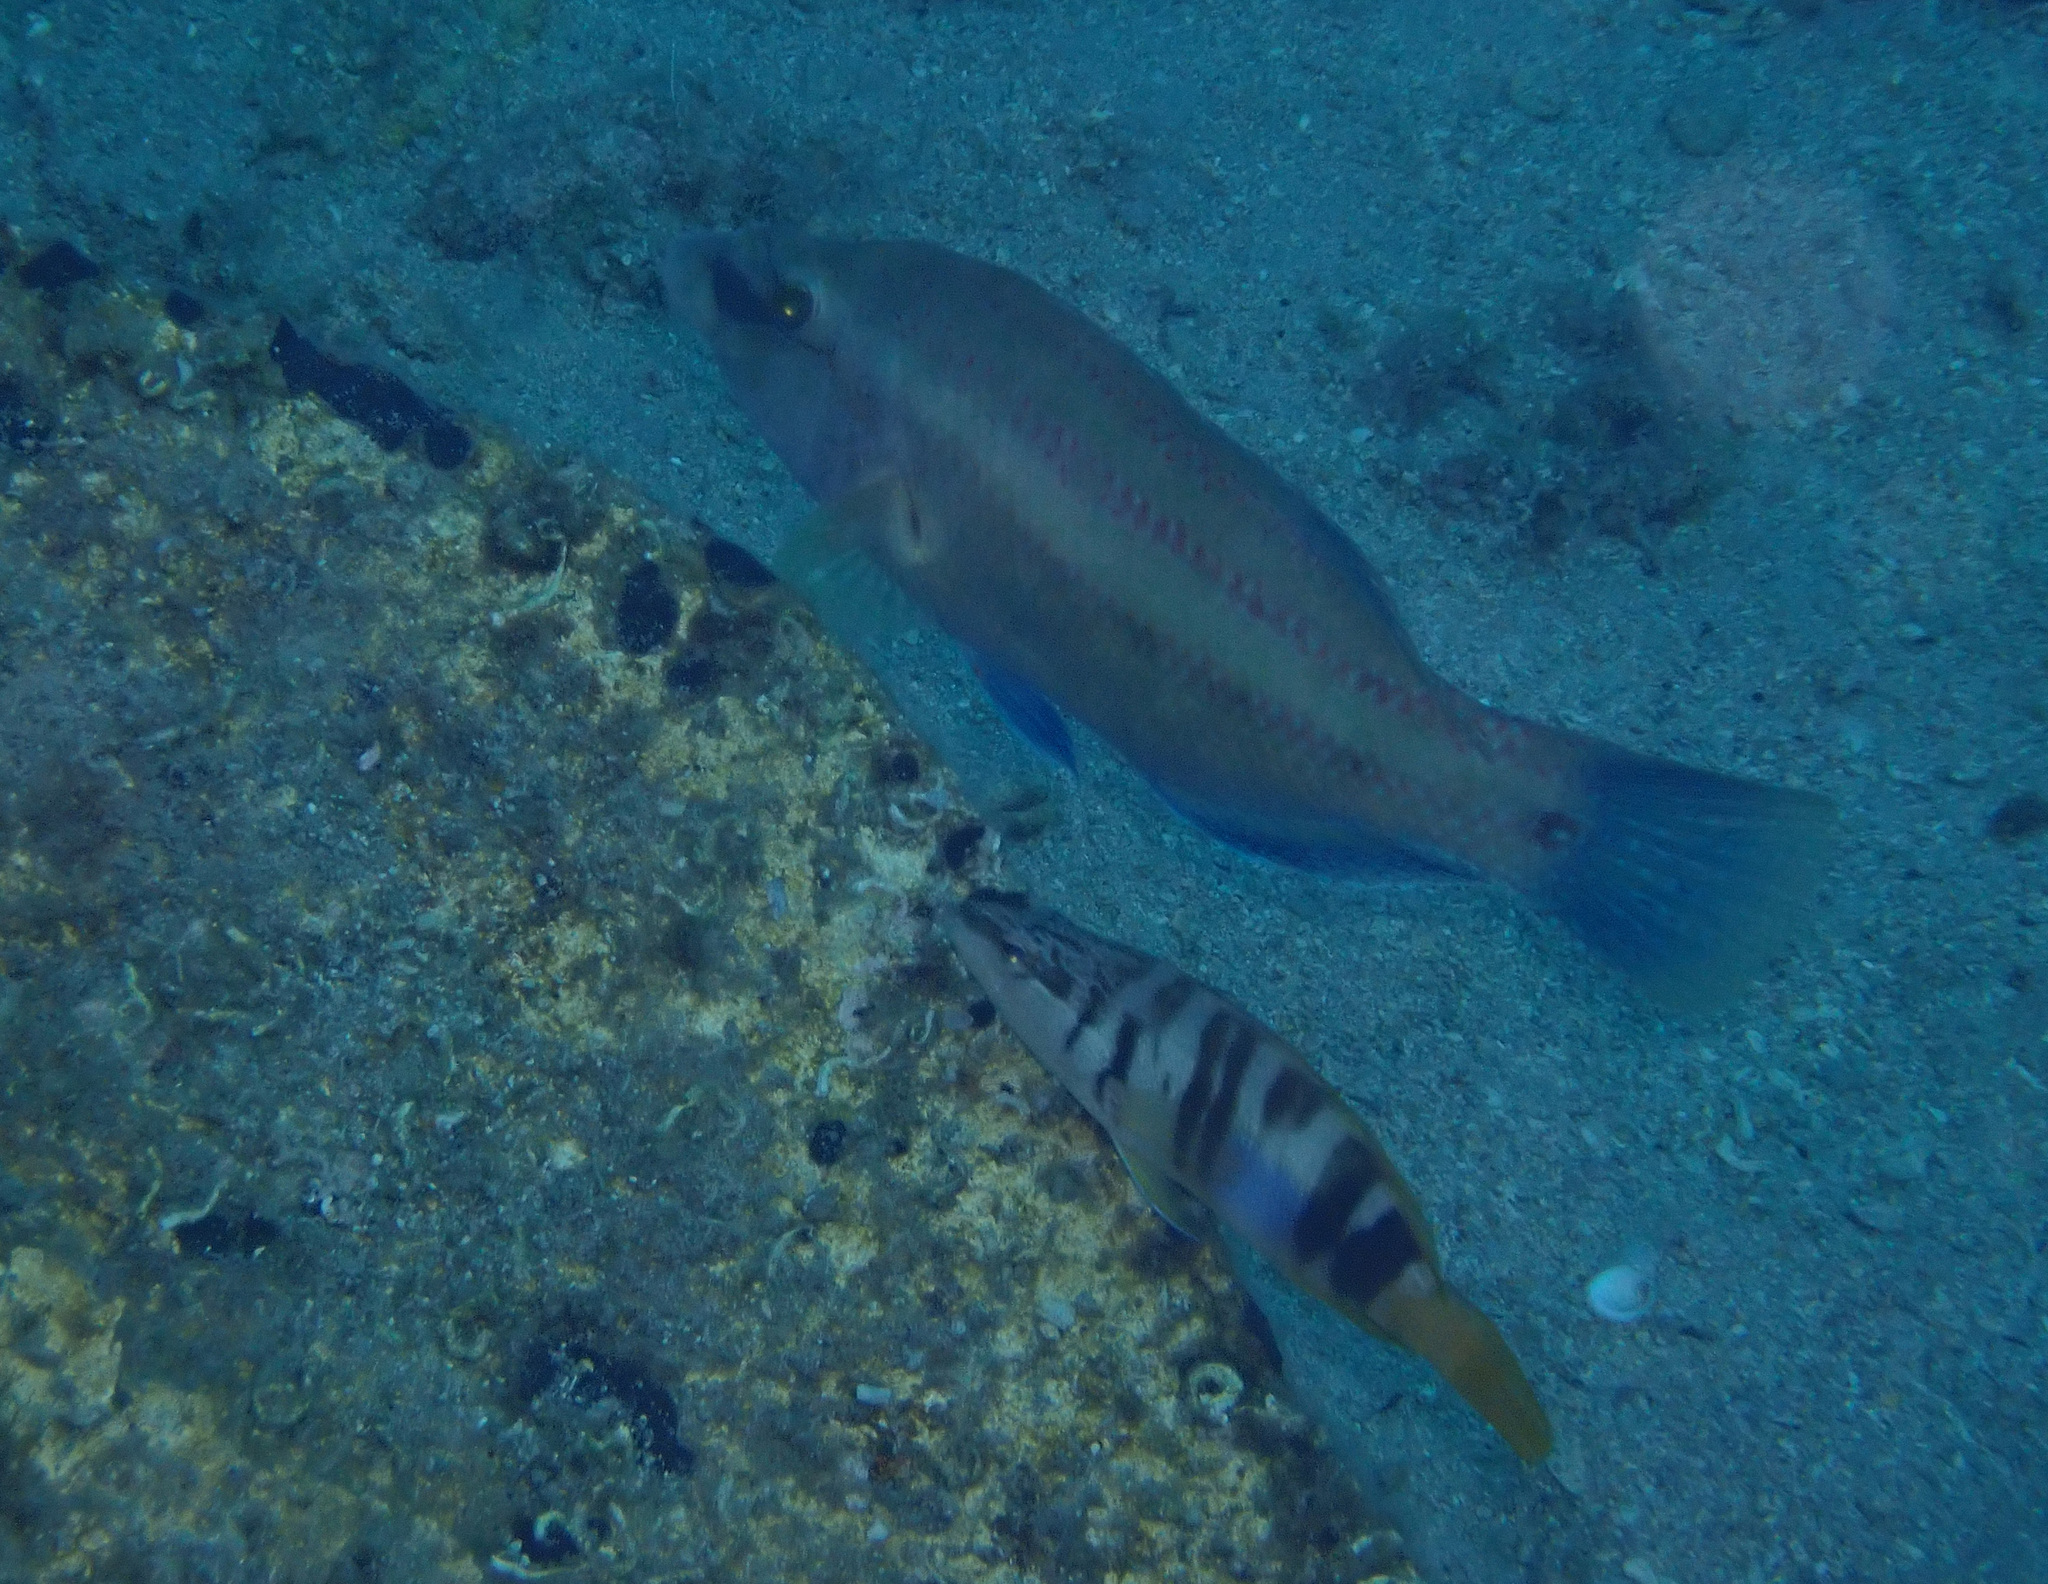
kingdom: Animalia
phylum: Chordata
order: Perciformes
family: Labridae
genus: Symphodus
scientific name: Symphodus tinca
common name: Peacock wrasse
